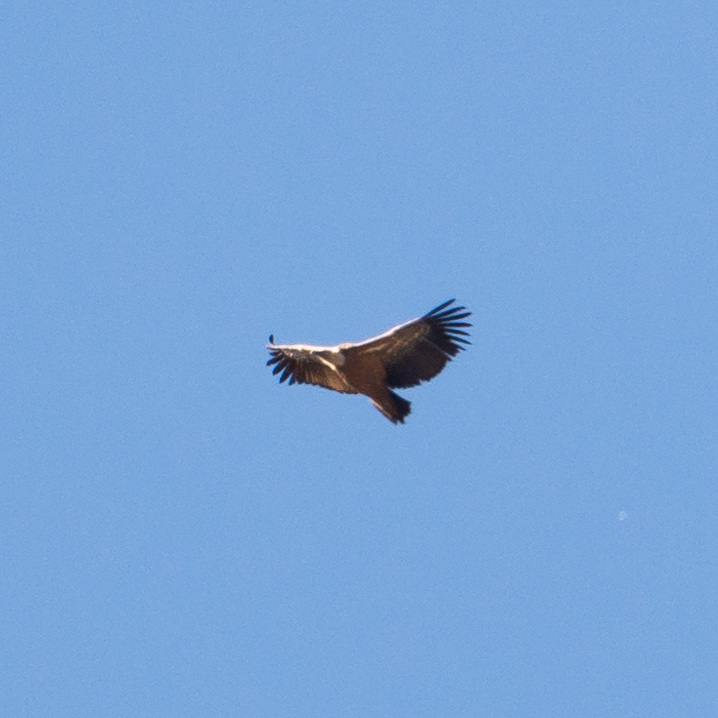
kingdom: Animalia
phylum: Chordata
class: Aves
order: Accipitriformes
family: Accipitridae
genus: Gyps
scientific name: Gyps fulvus
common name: Griffon vulture
